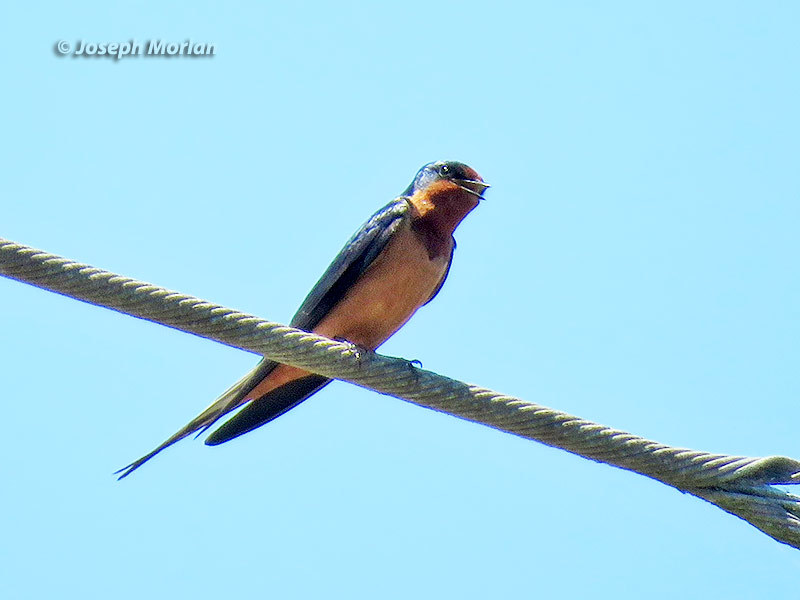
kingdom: Animalia
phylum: Chordata
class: Aves
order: Passeriformes
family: Hirundinidae
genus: Hirundo
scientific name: Hirundo rustica
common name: Barn swallow
